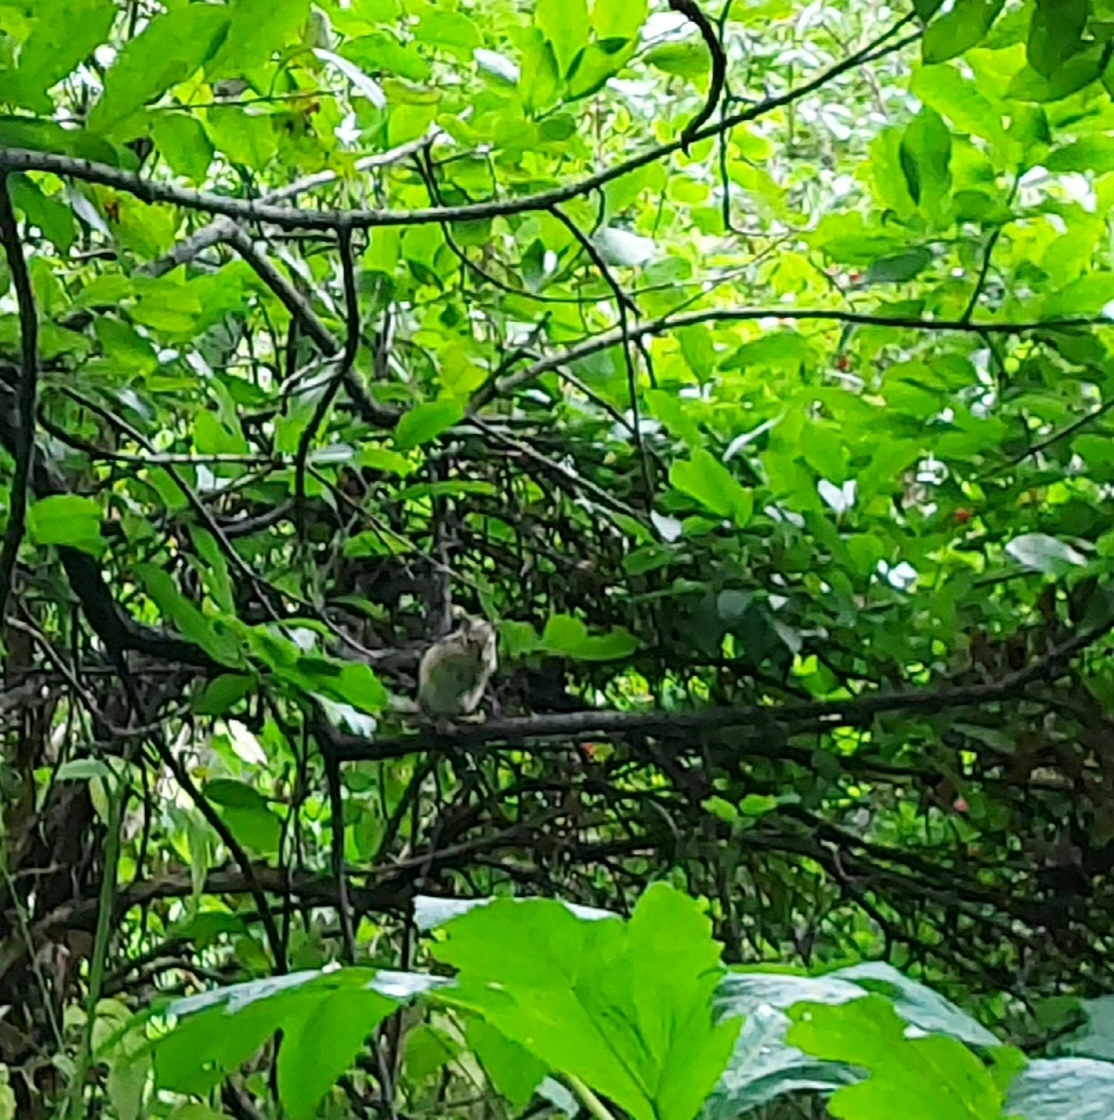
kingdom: Animalia
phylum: Chordata
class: Mammalia
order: Rodentia
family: Sciuridae
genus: Tamias
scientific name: Tamias sibiricus
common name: Siberian chipmunk
